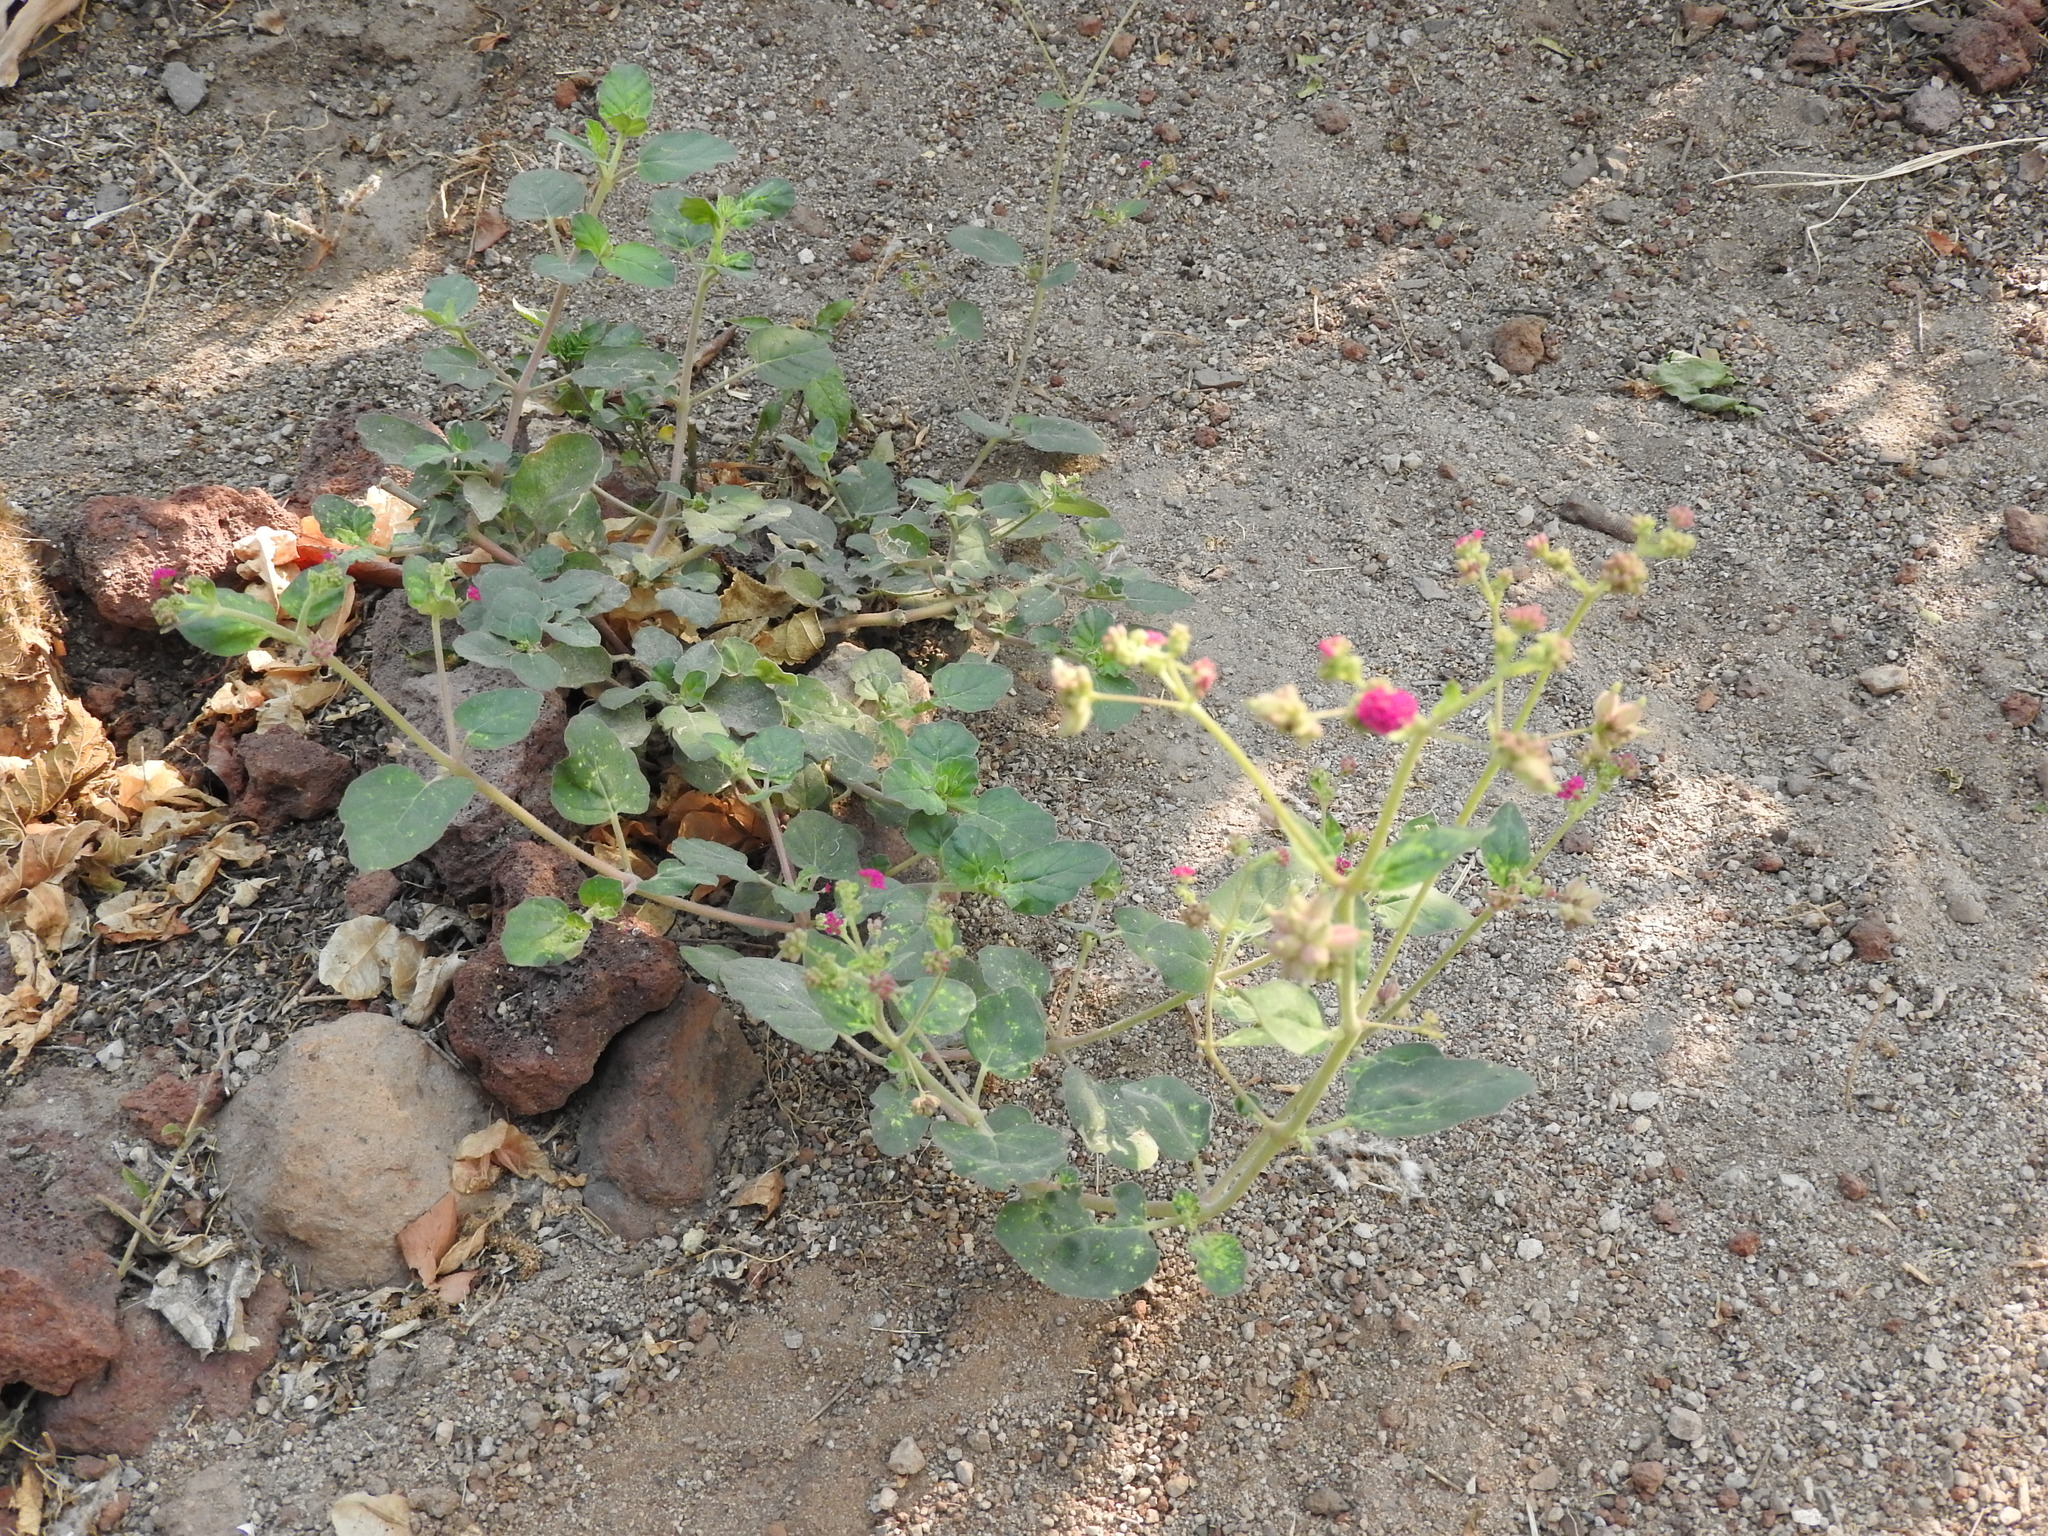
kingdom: Plantae
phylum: Tracheophyta
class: Magnoliopsida
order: Caryophyllales
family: Nyctaginaceae
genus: Boerhavia
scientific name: Boerhavia coccinea
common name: Scarlet spiderling
